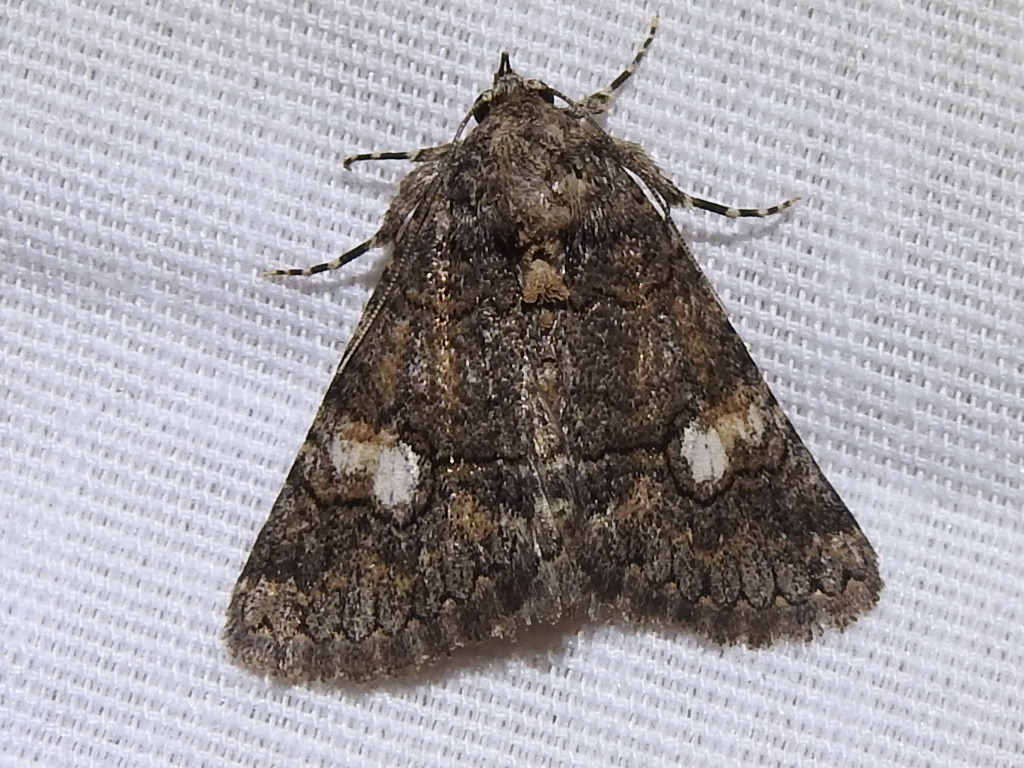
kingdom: Animalia
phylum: Arthropoda
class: Insecta
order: Lepidoptera
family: Erebidae
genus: Elousa
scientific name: Elousa mima
